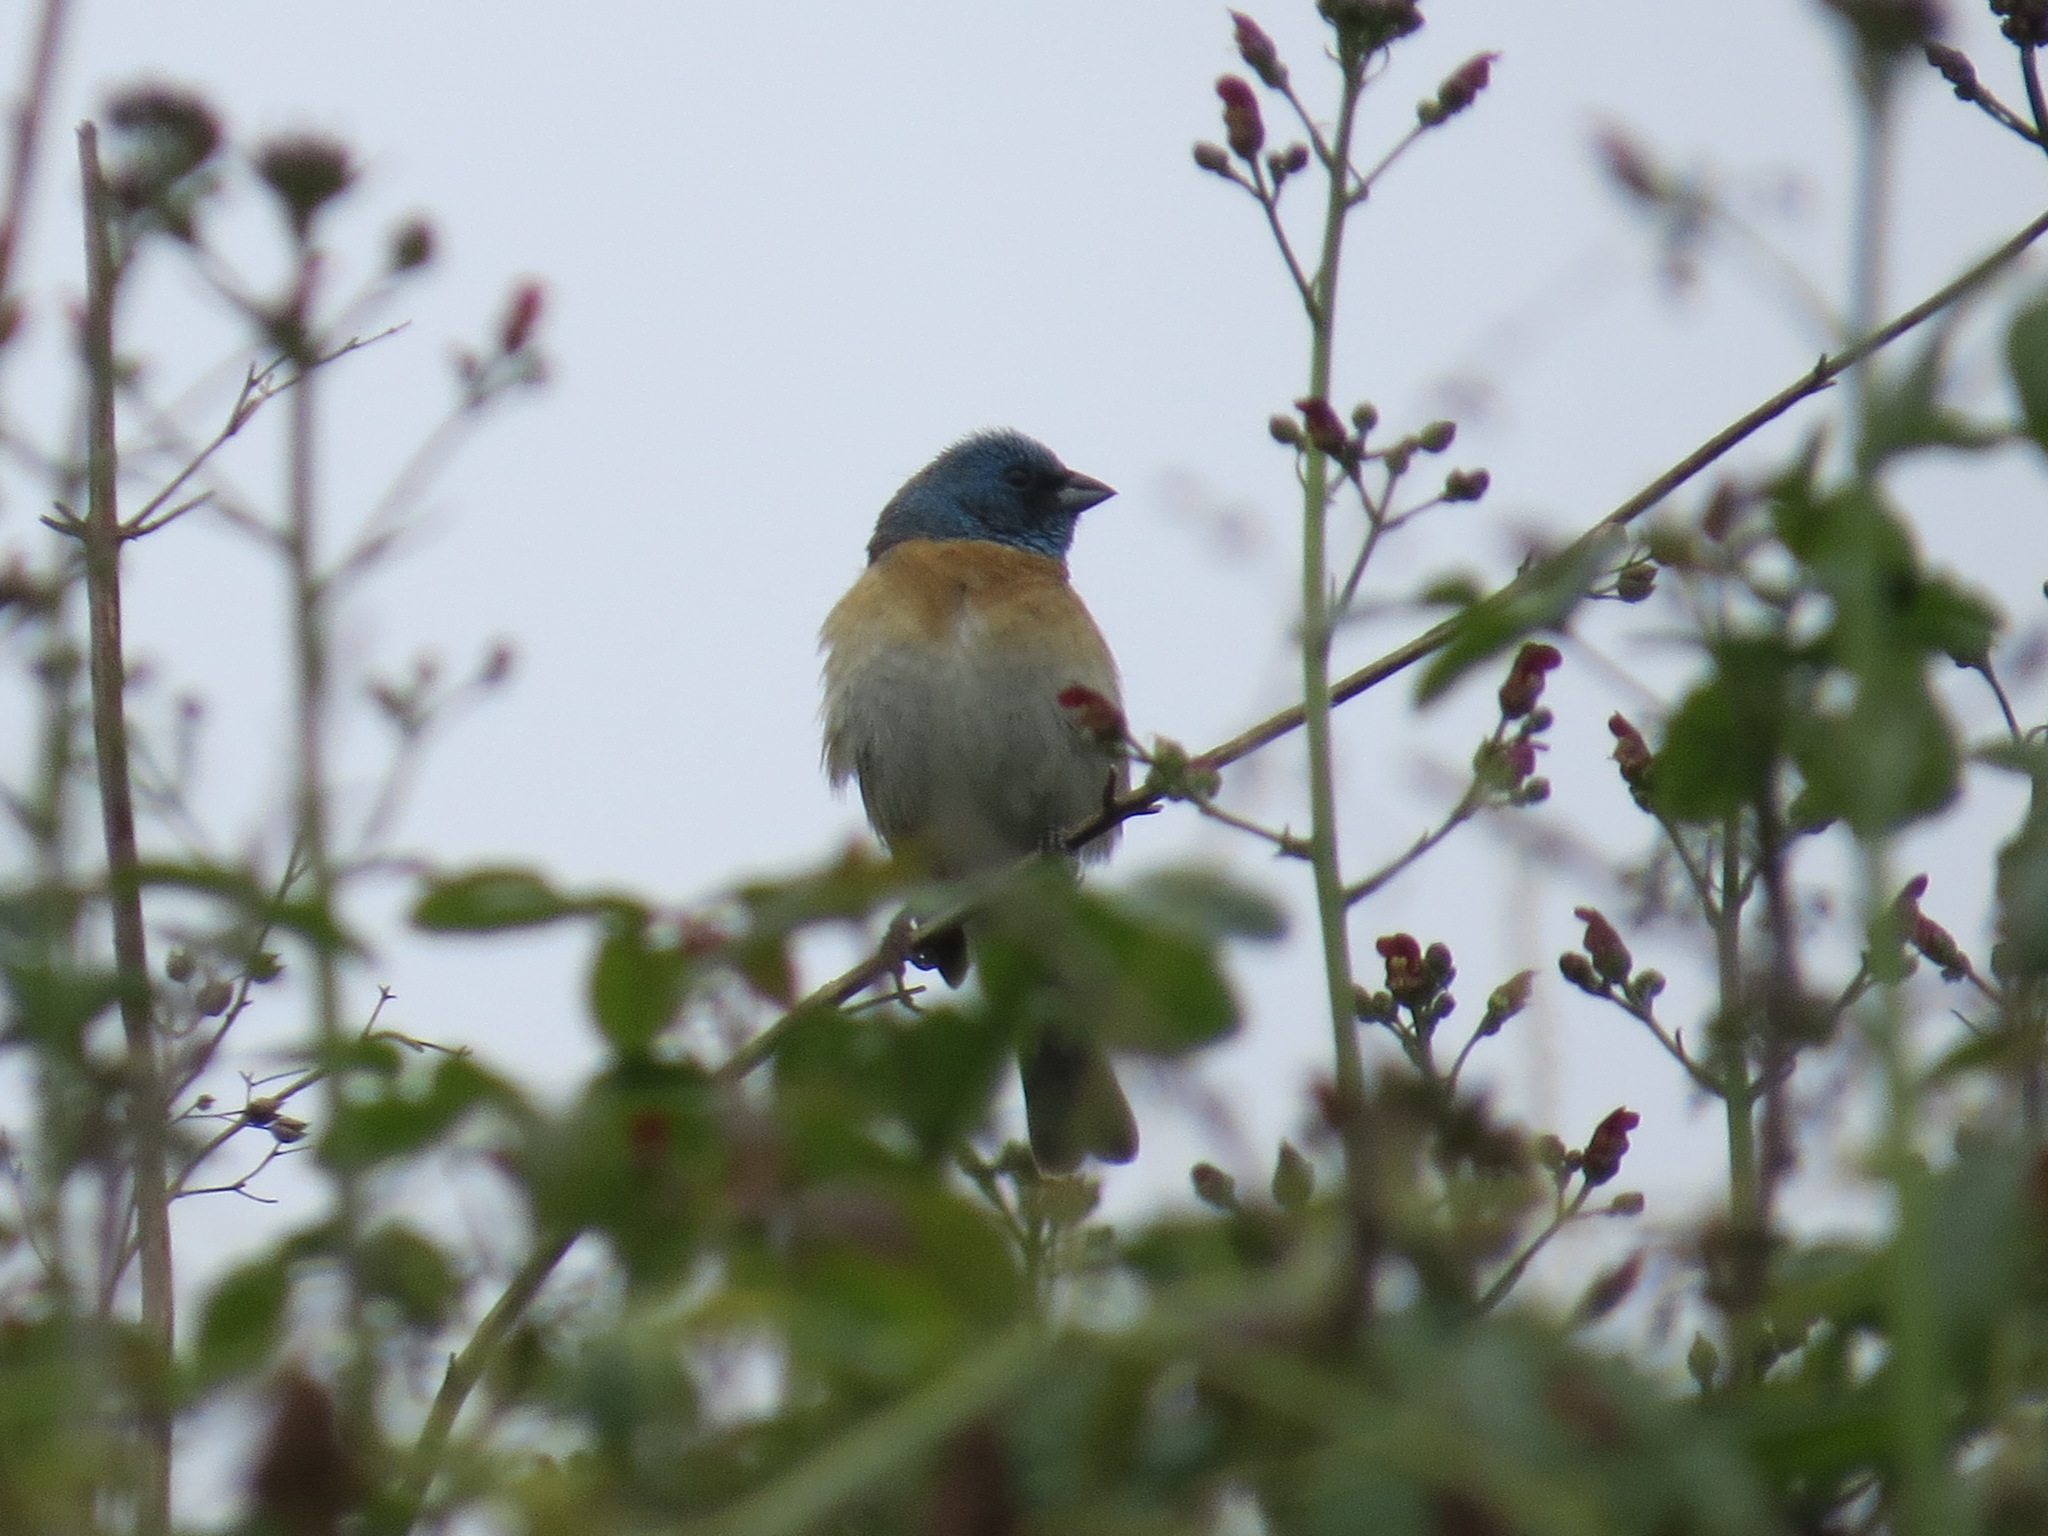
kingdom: Animalia
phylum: Chordata
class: Aves
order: Passeriformes
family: Cardinalidae
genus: Passerina
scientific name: Passerina amoena
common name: Lazuli bunting
